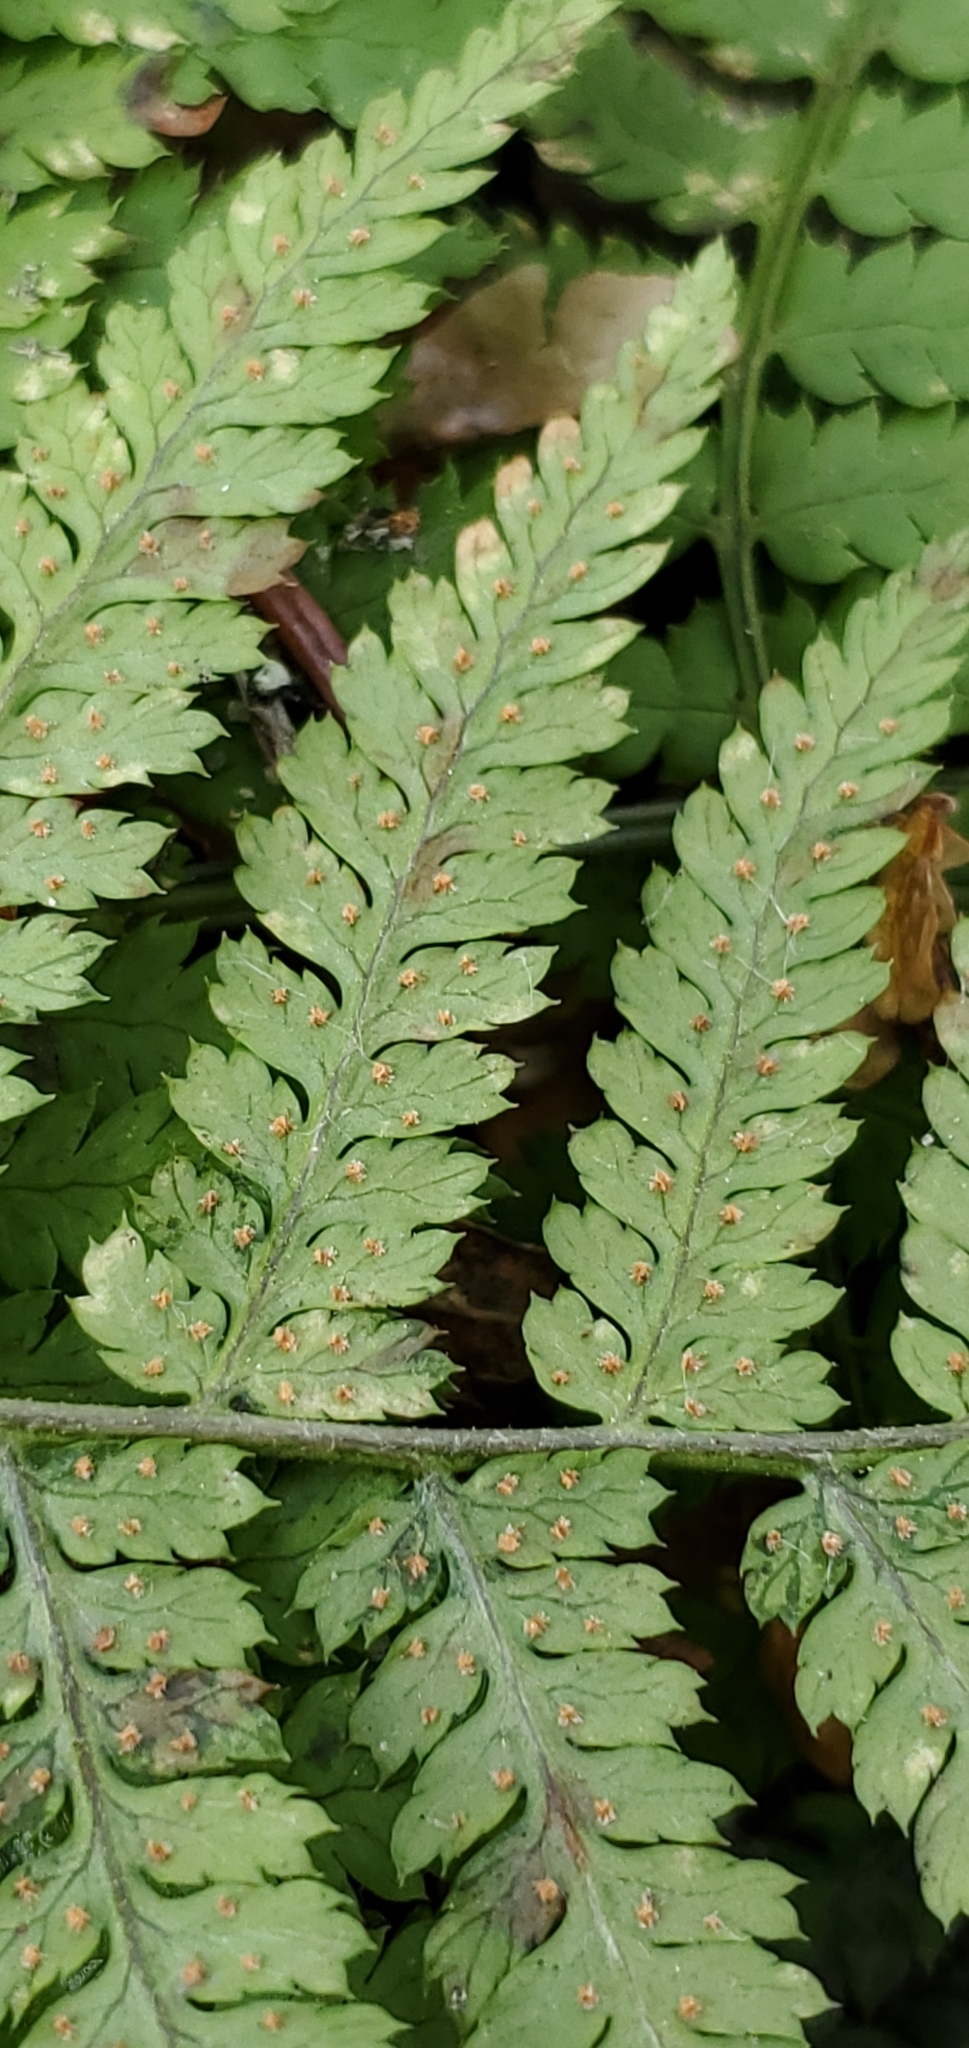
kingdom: Plantae
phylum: Tracheophyta
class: Polypodiopsida
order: Polypodiales
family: Dryopteridaceae
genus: Dryopteris
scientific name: Dryopteris intermedia
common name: Evergreen wood fern
